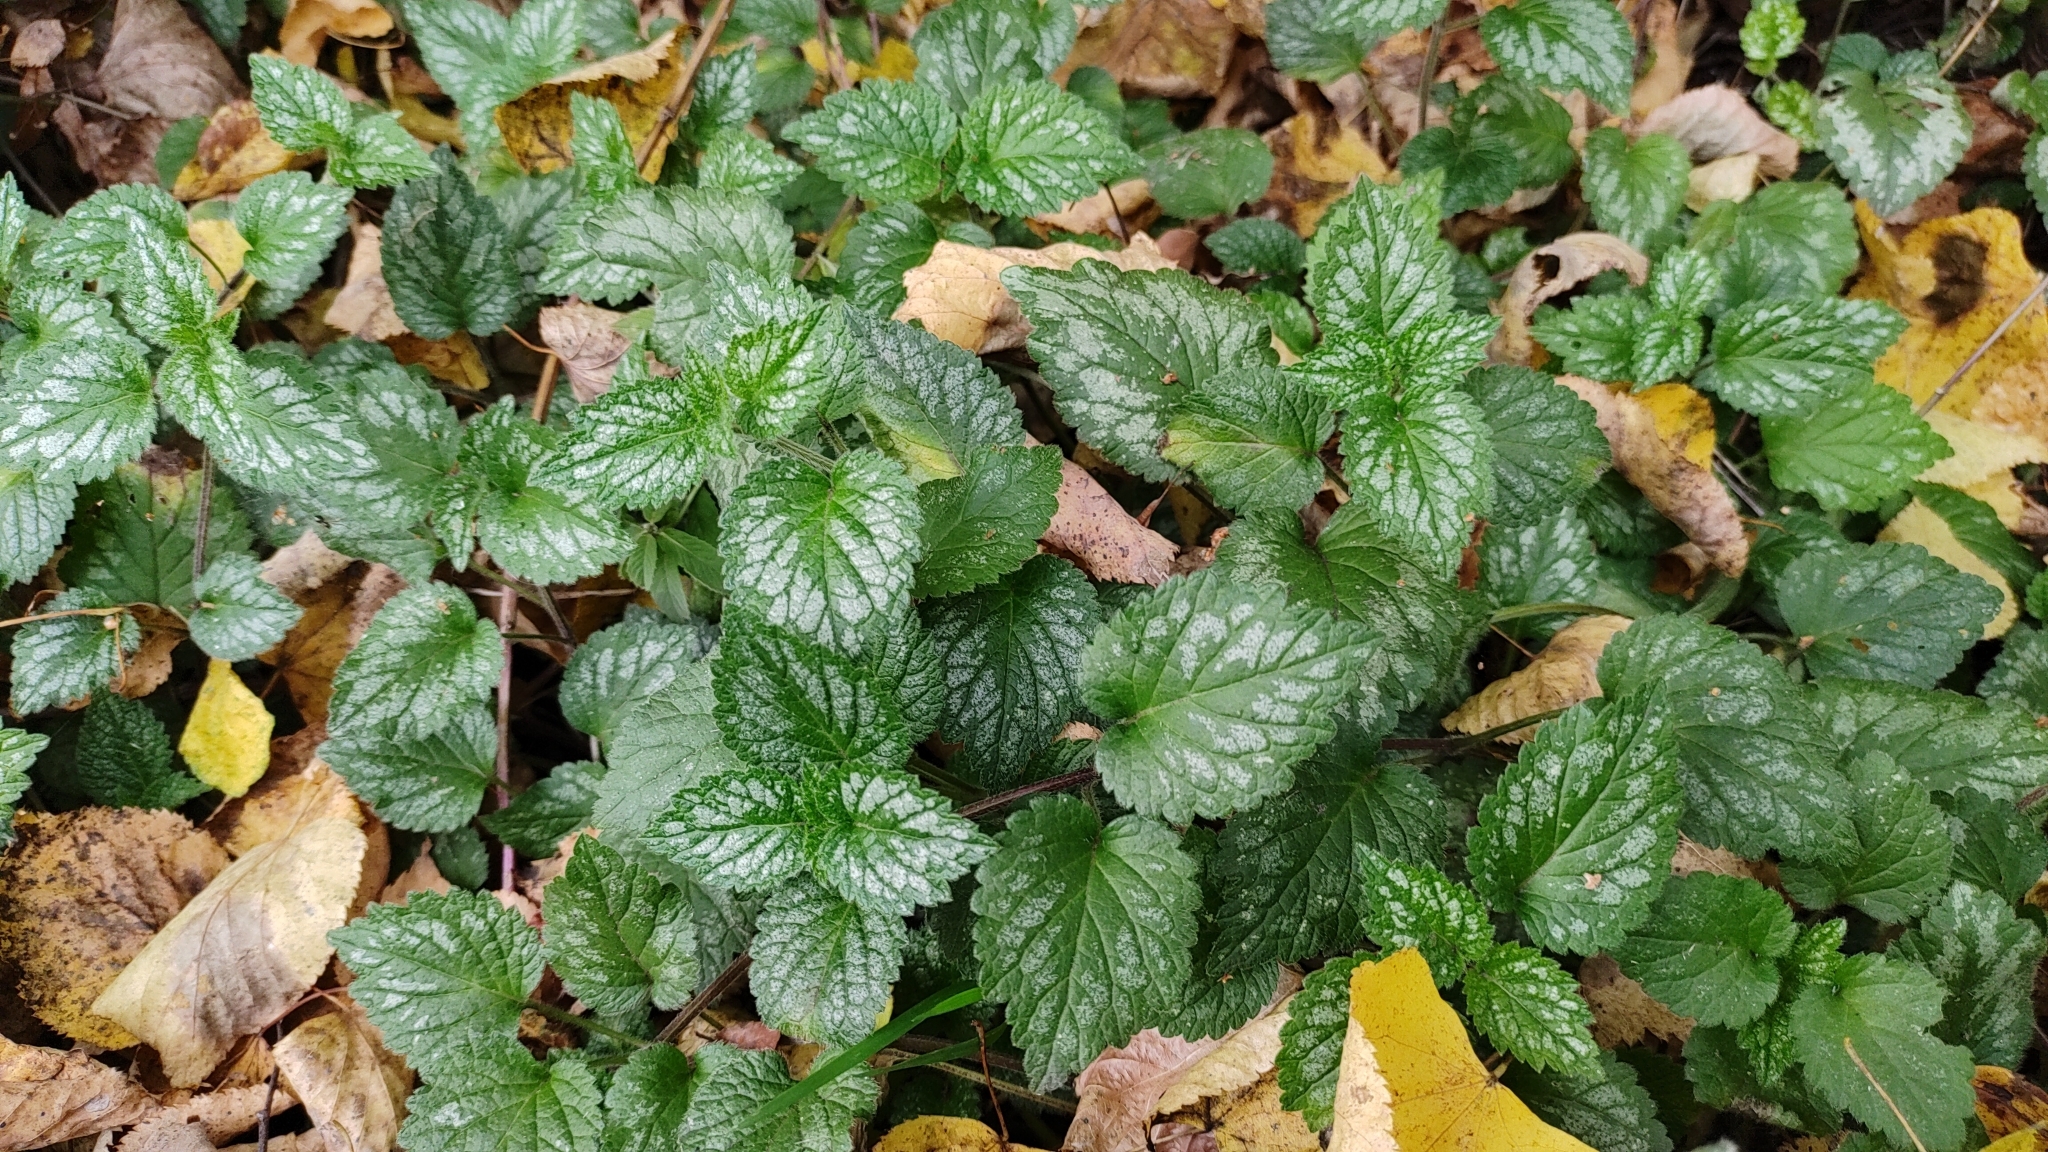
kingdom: Plantae
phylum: Tracheophyta
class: Magnoliopsida
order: Lamiales
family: Lamiaceae
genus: Lamium
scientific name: Lamium galeobdolon
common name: Yellow archangel
